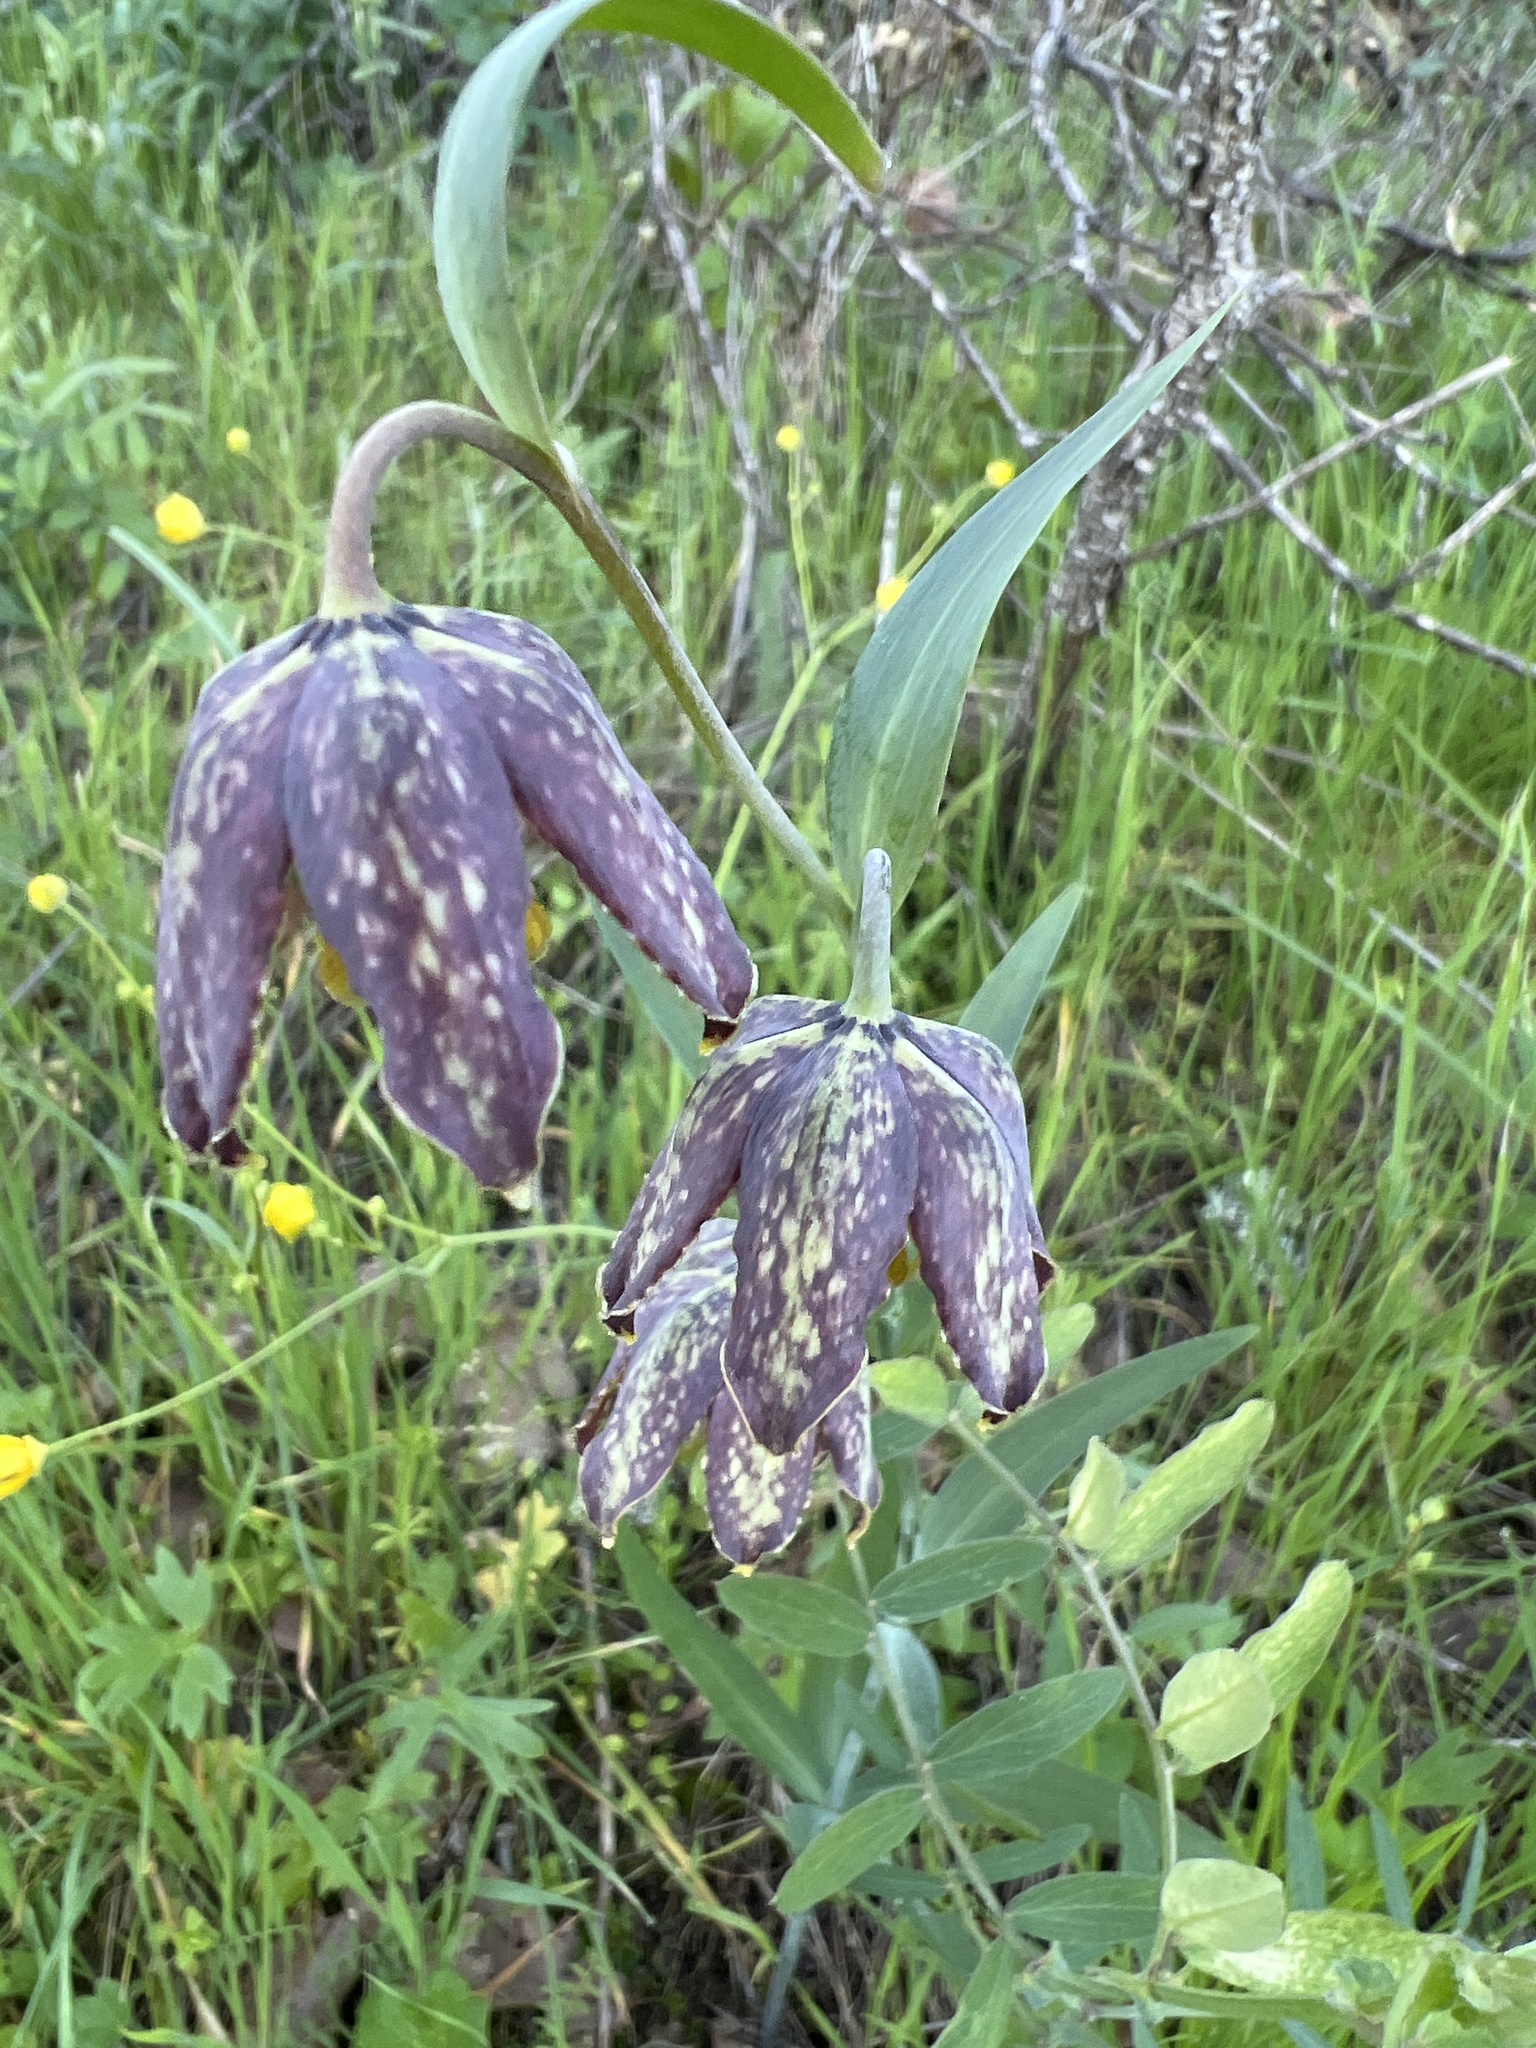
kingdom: Plantae
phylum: Tracheophyta
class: Liliopsida
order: Liliales
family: Liliaceae
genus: Fritillaria
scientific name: Fritillaria affinis
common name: Ojai fritillary
